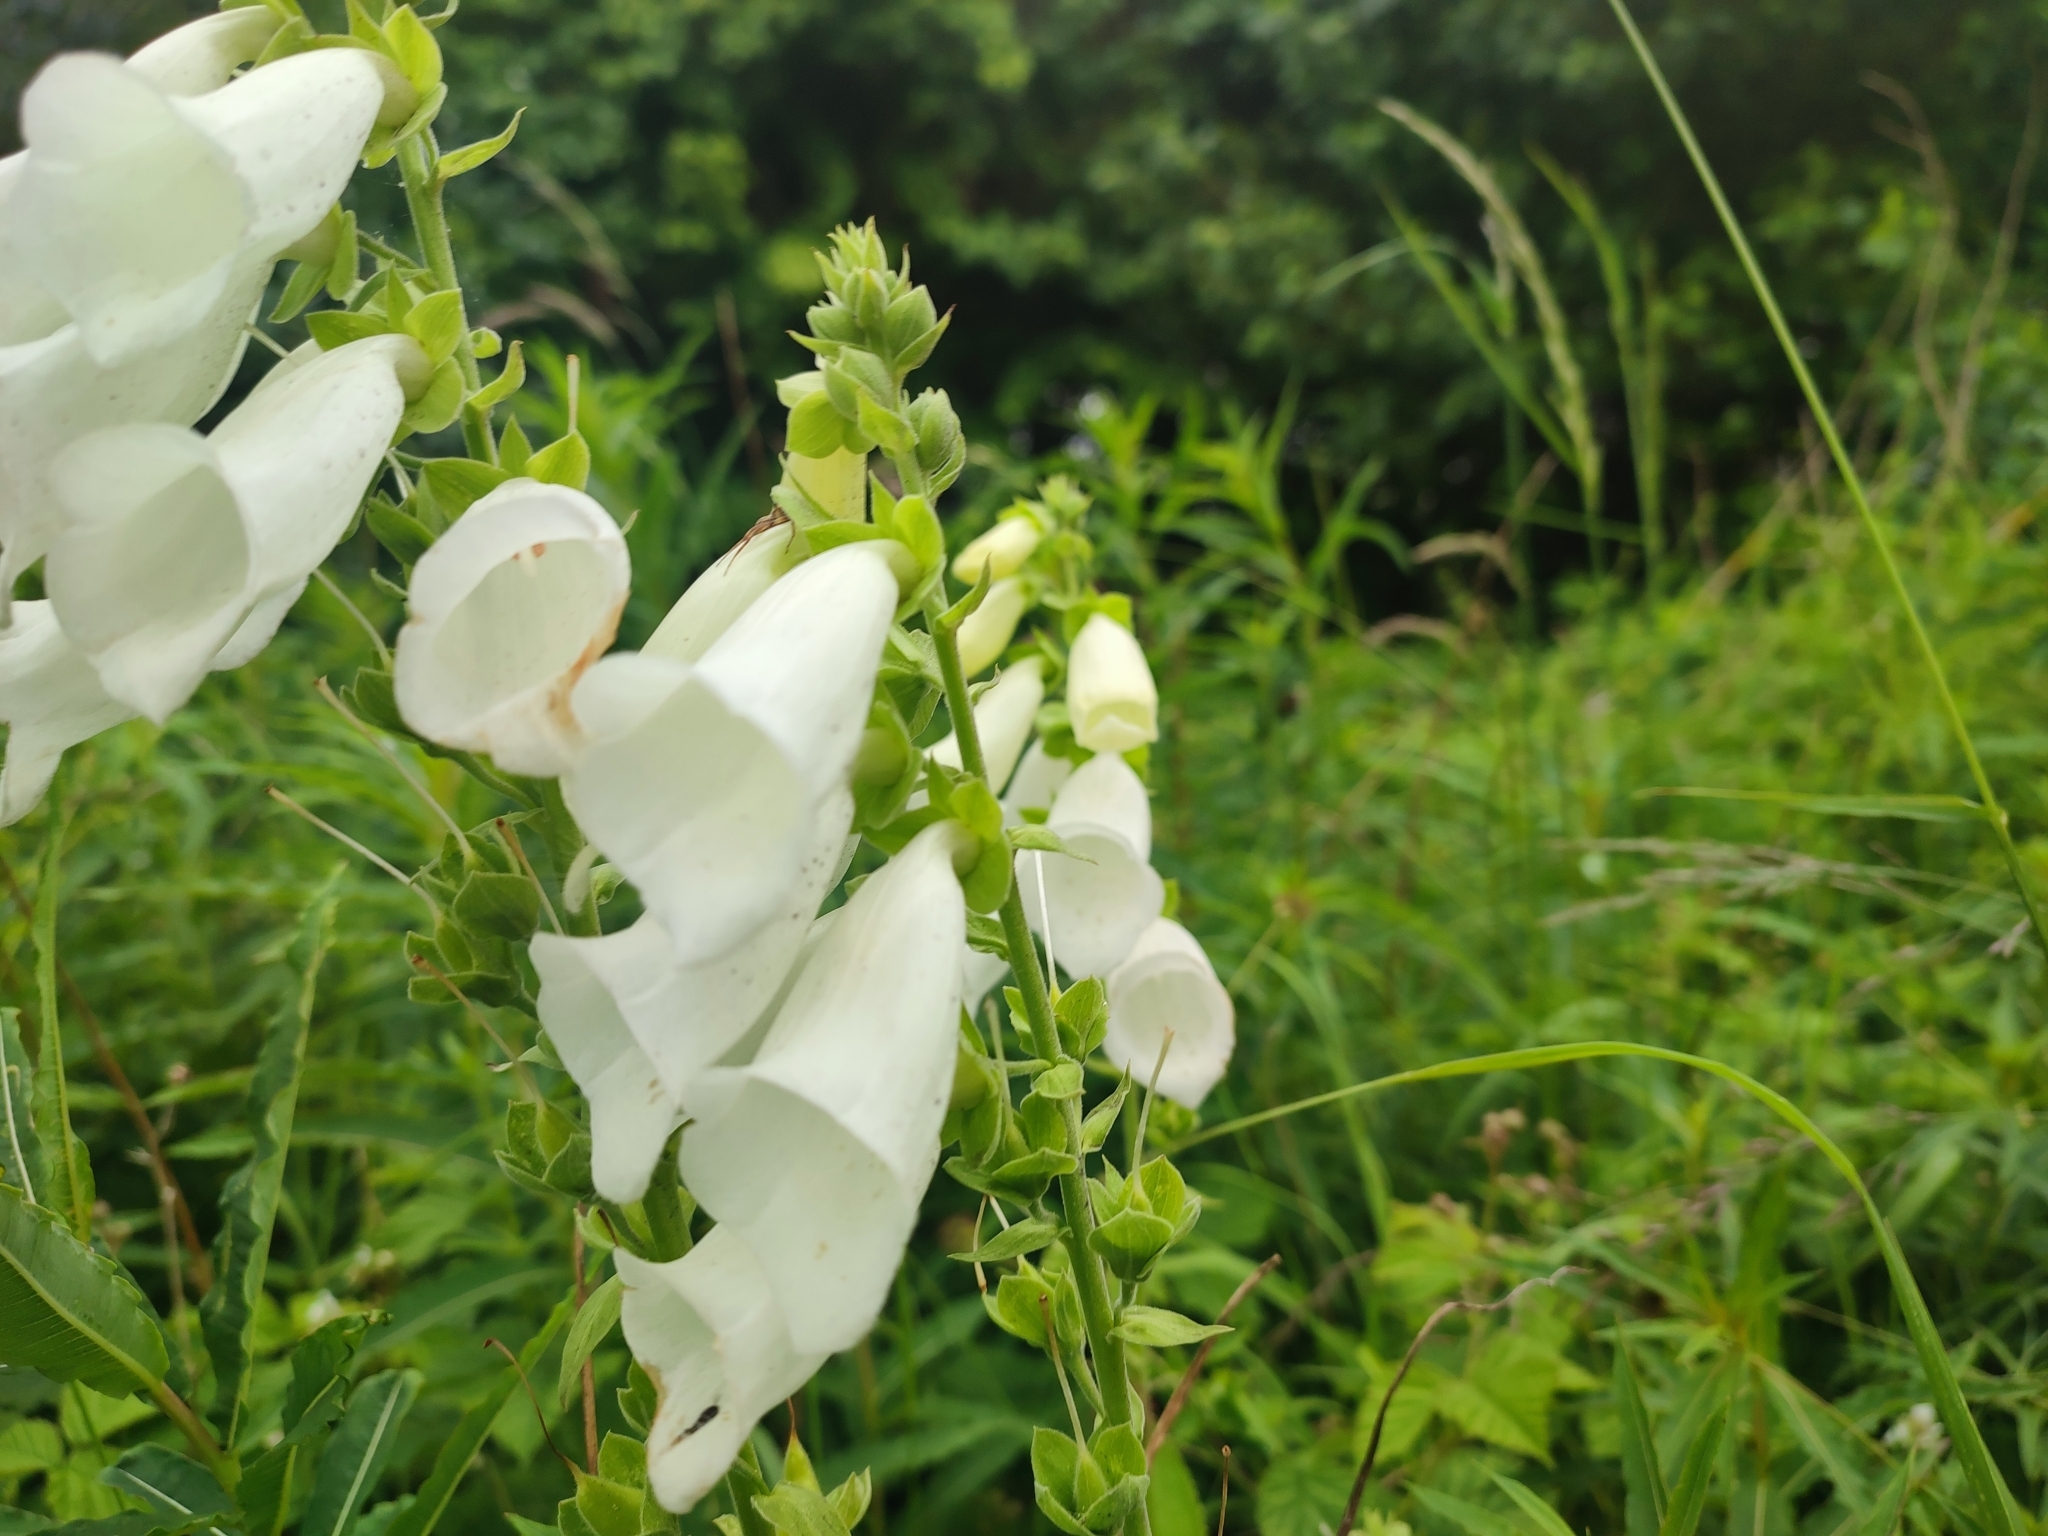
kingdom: Plantae
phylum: Tracheophyta
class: Magnoliopsida
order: Lamiales
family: Plantaginaceae
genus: Digitalis
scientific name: Digitalis purpurea
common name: Foxglove
